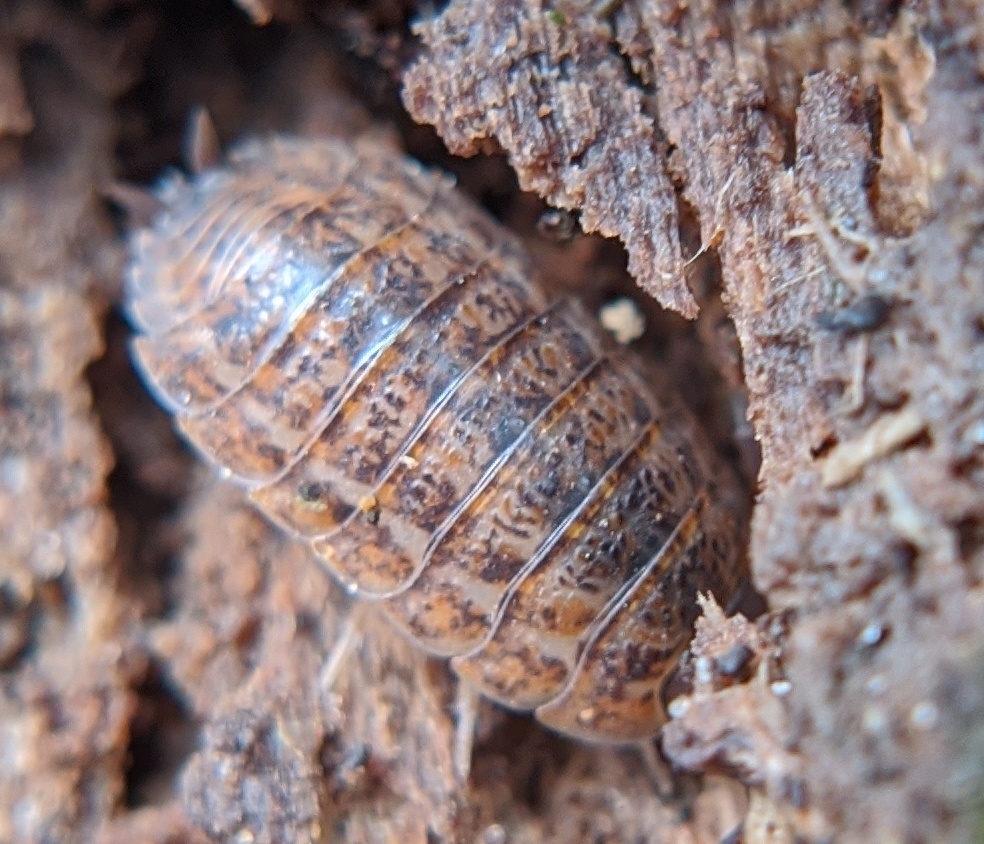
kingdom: Animalia
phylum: Arthropoda
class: Malacostraca
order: Isopoda
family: Trachelipodidae
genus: Trachelipus
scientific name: Trachelipus rathkii
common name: Isopod
